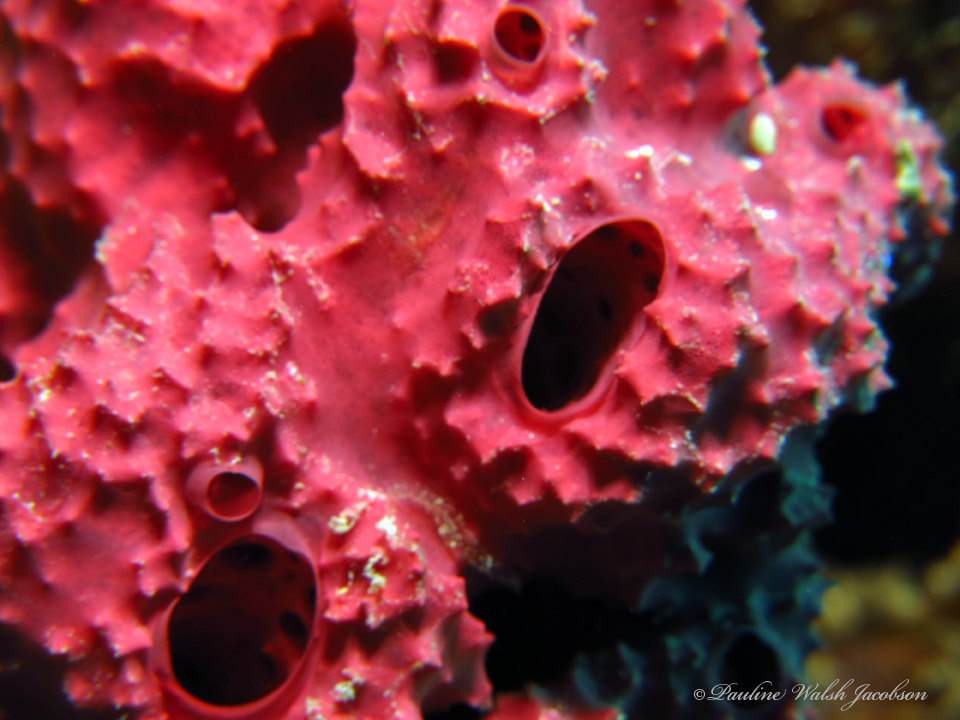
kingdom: Animalia
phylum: Porifera
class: Demospongiae
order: Dendroceratida
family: Dictyodendrillidae
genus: Igernella
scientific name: Igernella notabilis
